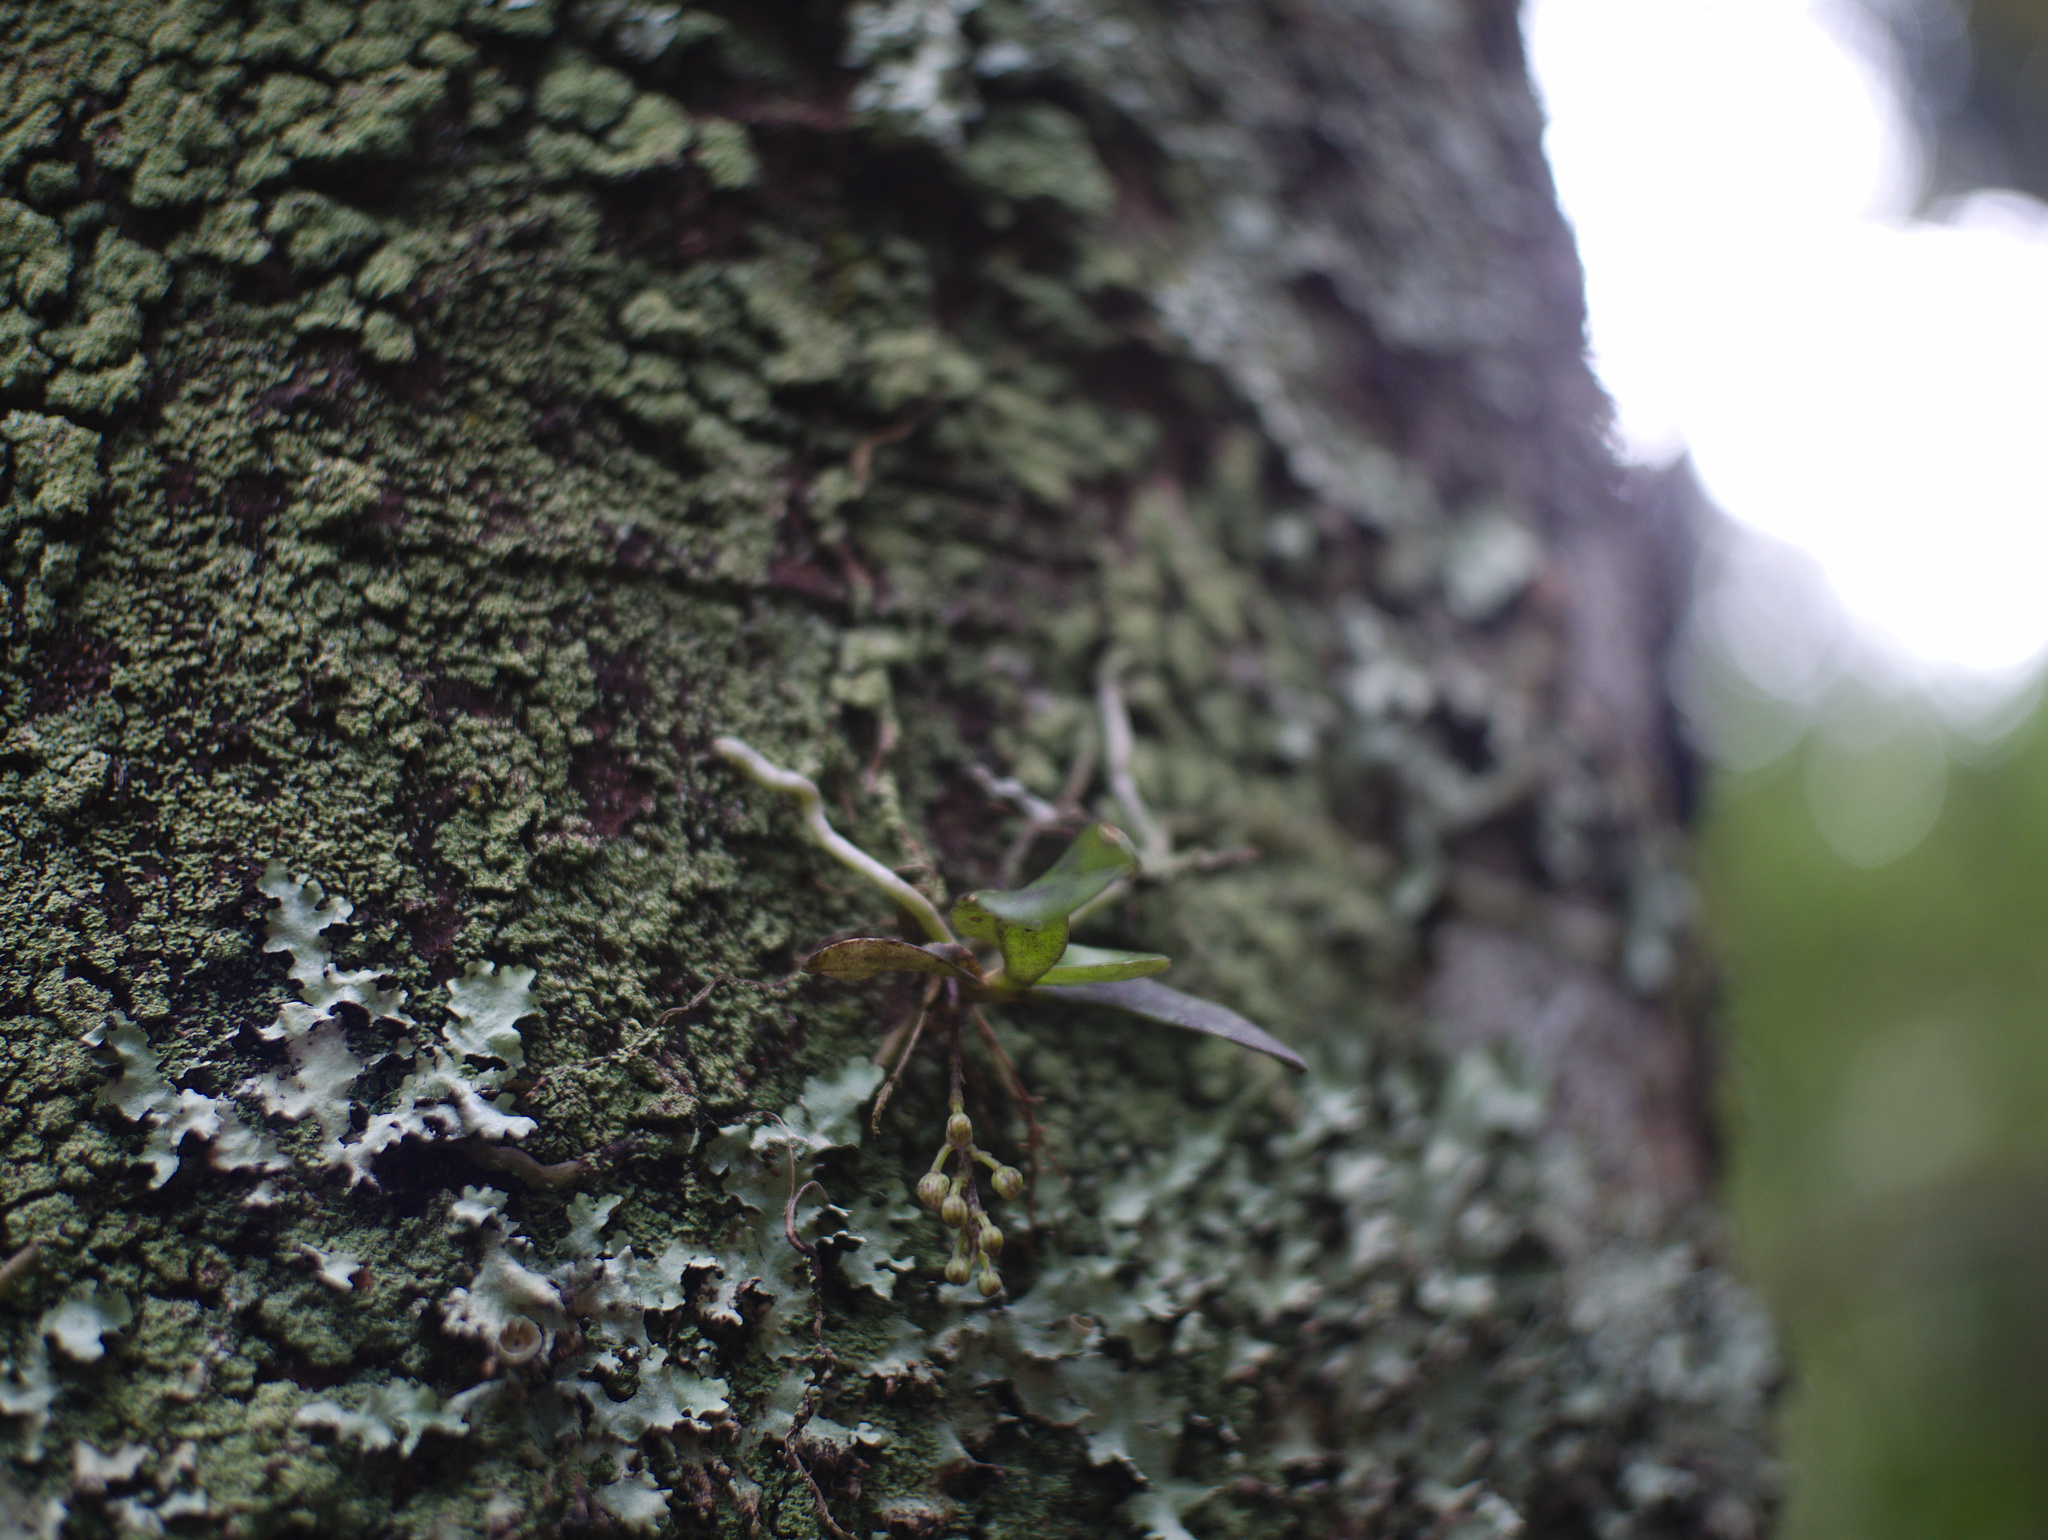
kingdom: Plantae
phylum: Tracheophyta
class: Liliopsida
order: Asparagales
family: Orchidaceae
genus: Drymoanthus
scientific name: Drymoanthus adversus
